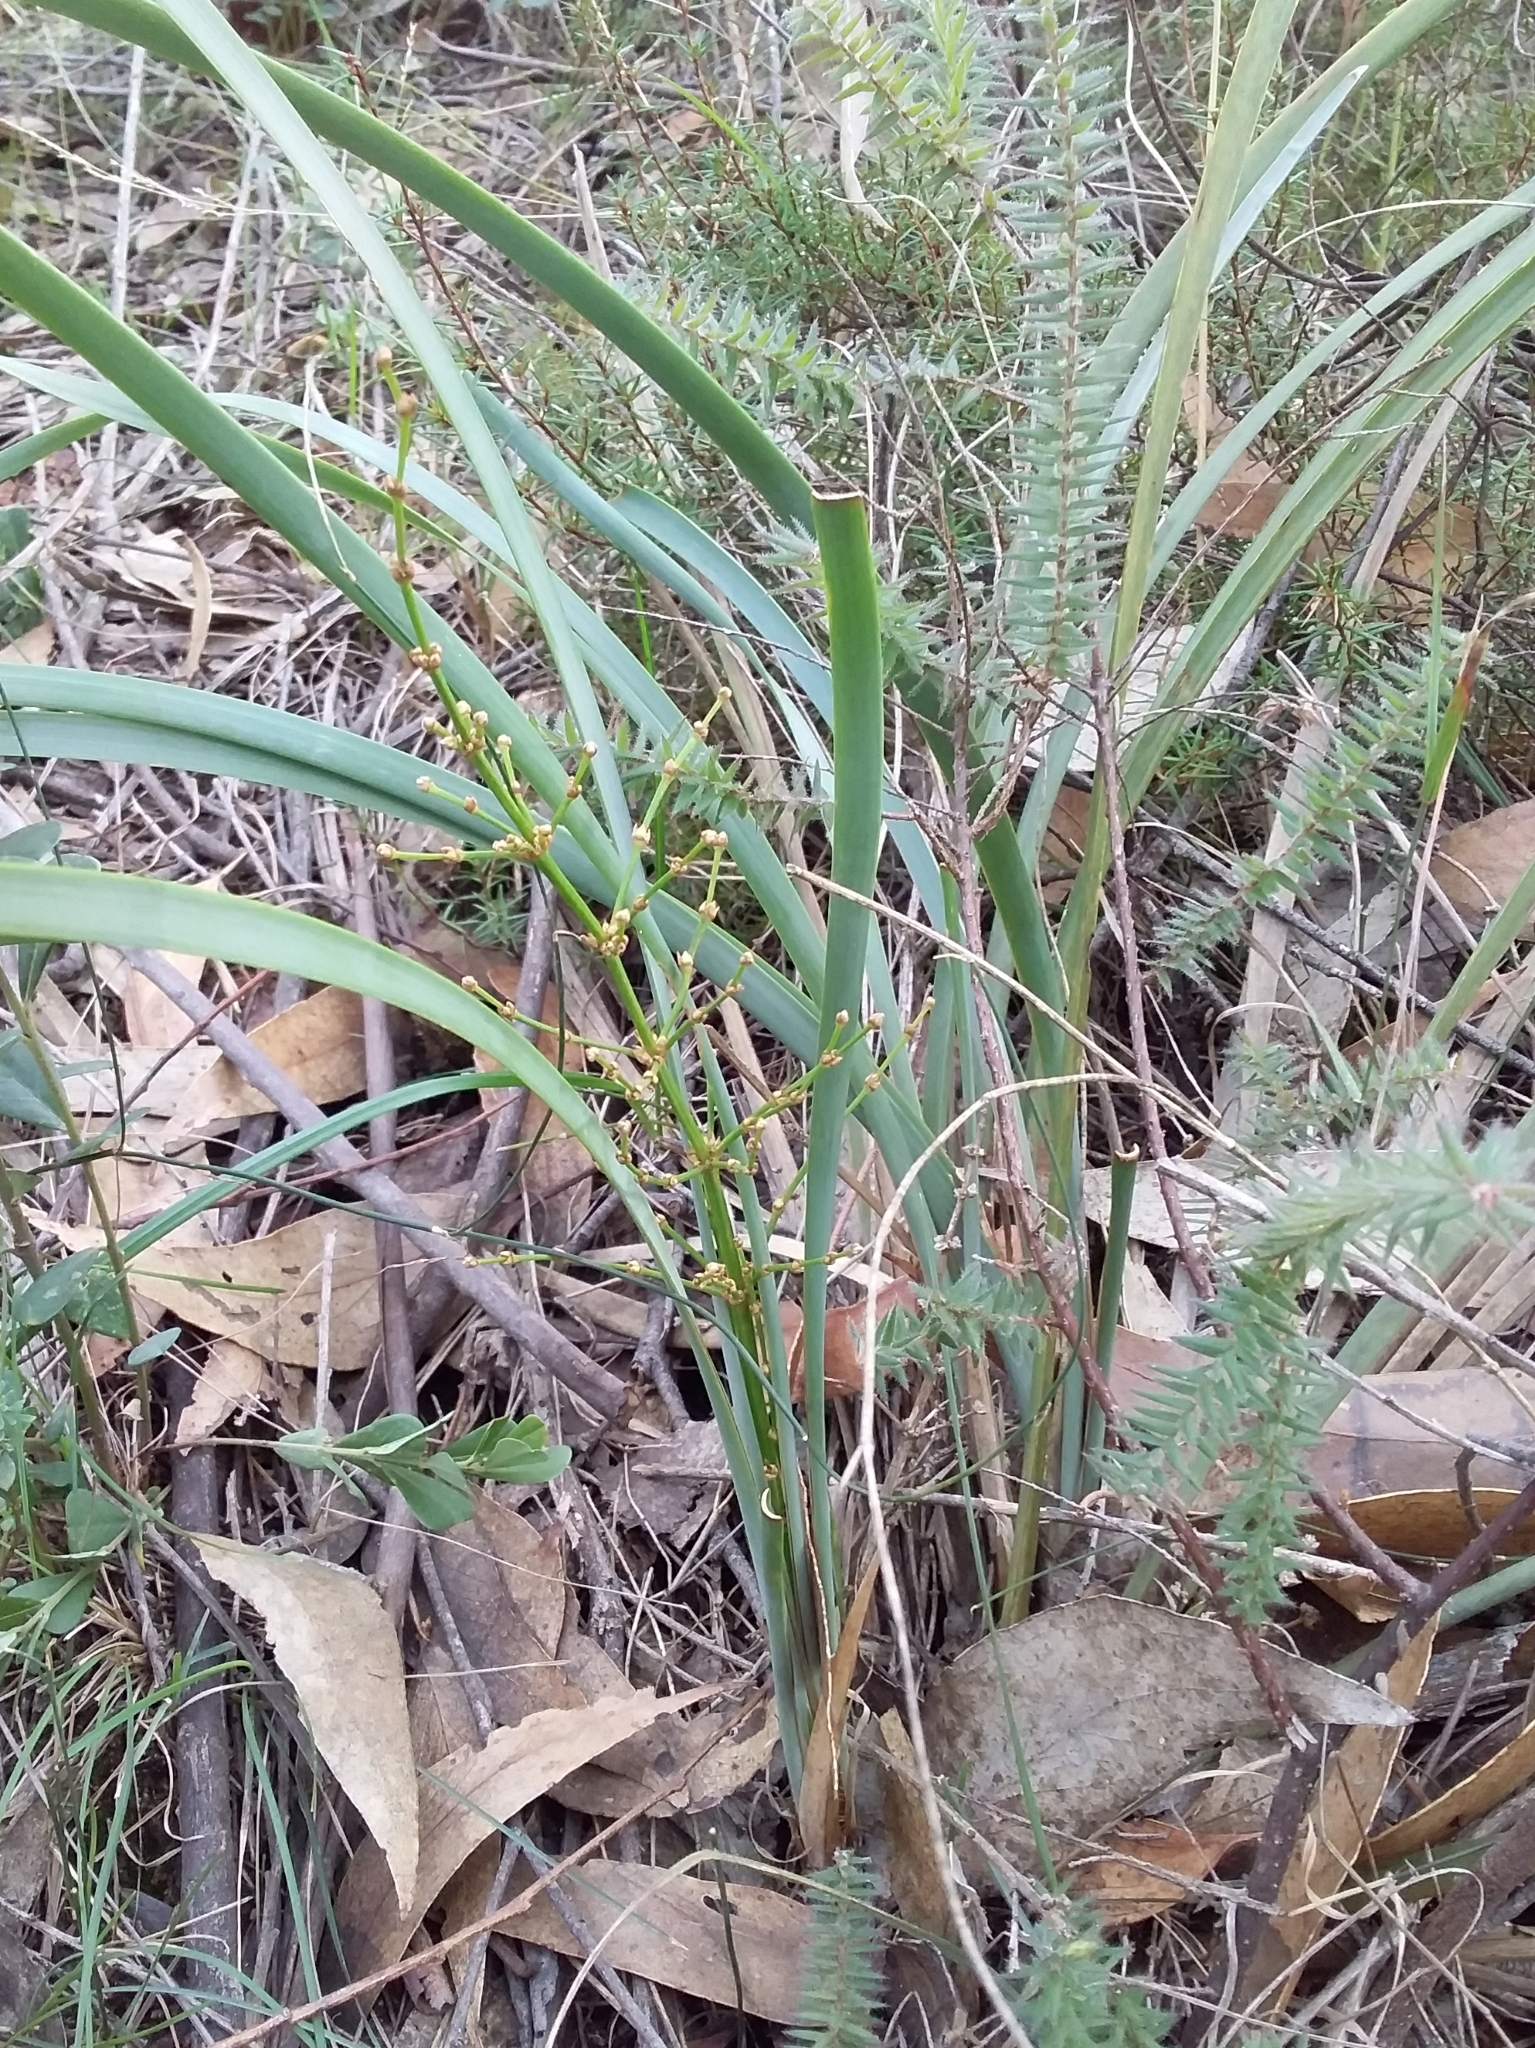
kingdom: Plantae
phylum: Tracheophyta
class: Liliopsida
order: Asparagales
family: Asparagaceae
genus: Lomandra
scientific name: Lomandra multiflora
